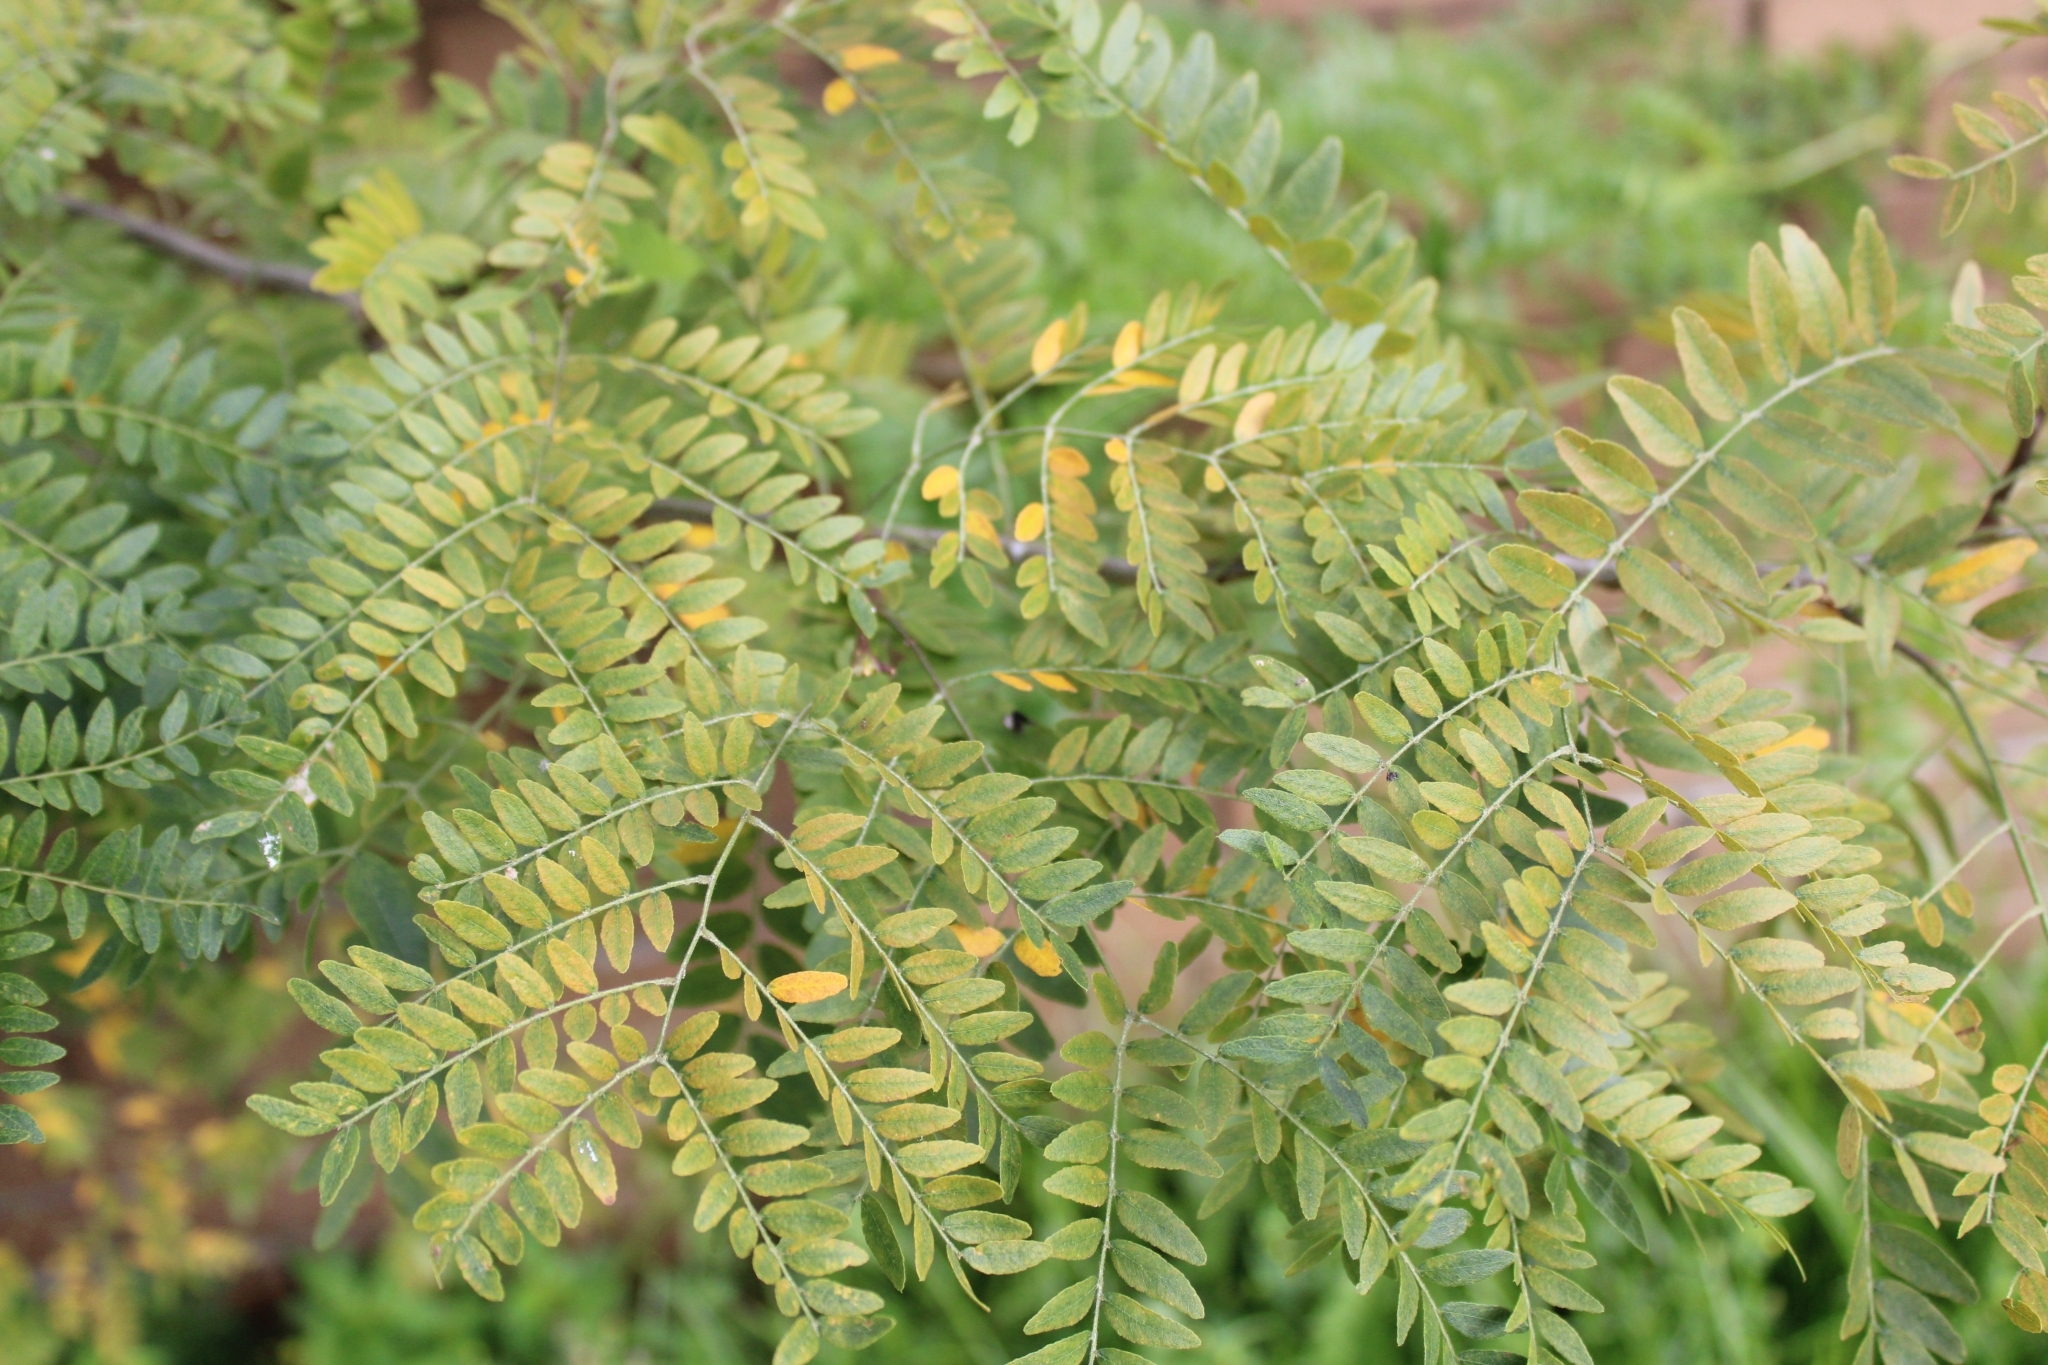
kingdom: Plantae
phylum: Tracheophyta
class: Magnoliopsida
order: Fabales
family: Fabaceae
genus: Gleditsia
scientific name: Gleditsia triacanthos
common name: Common honeylocust
